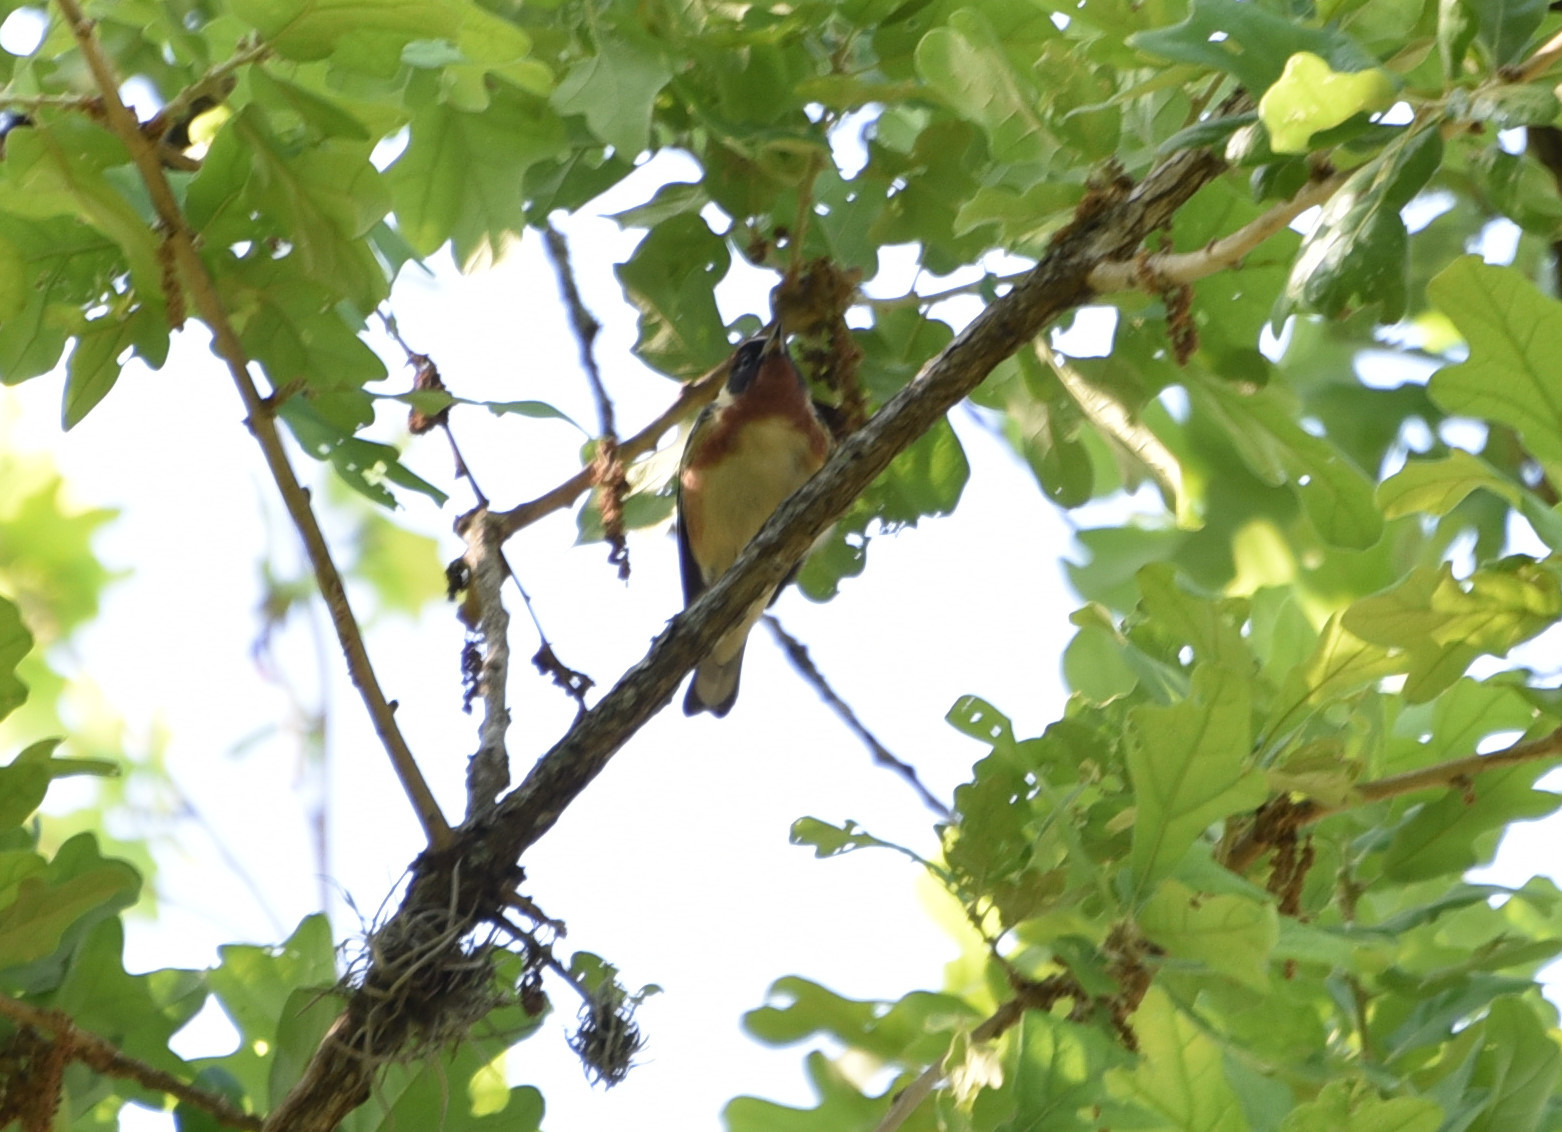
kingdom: Animalia
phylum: Chordata
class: Aves
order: Passeriformes
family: Parulidae
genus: Setophaga
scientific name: Setophaga castanea
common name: Bay-breasted warbler
